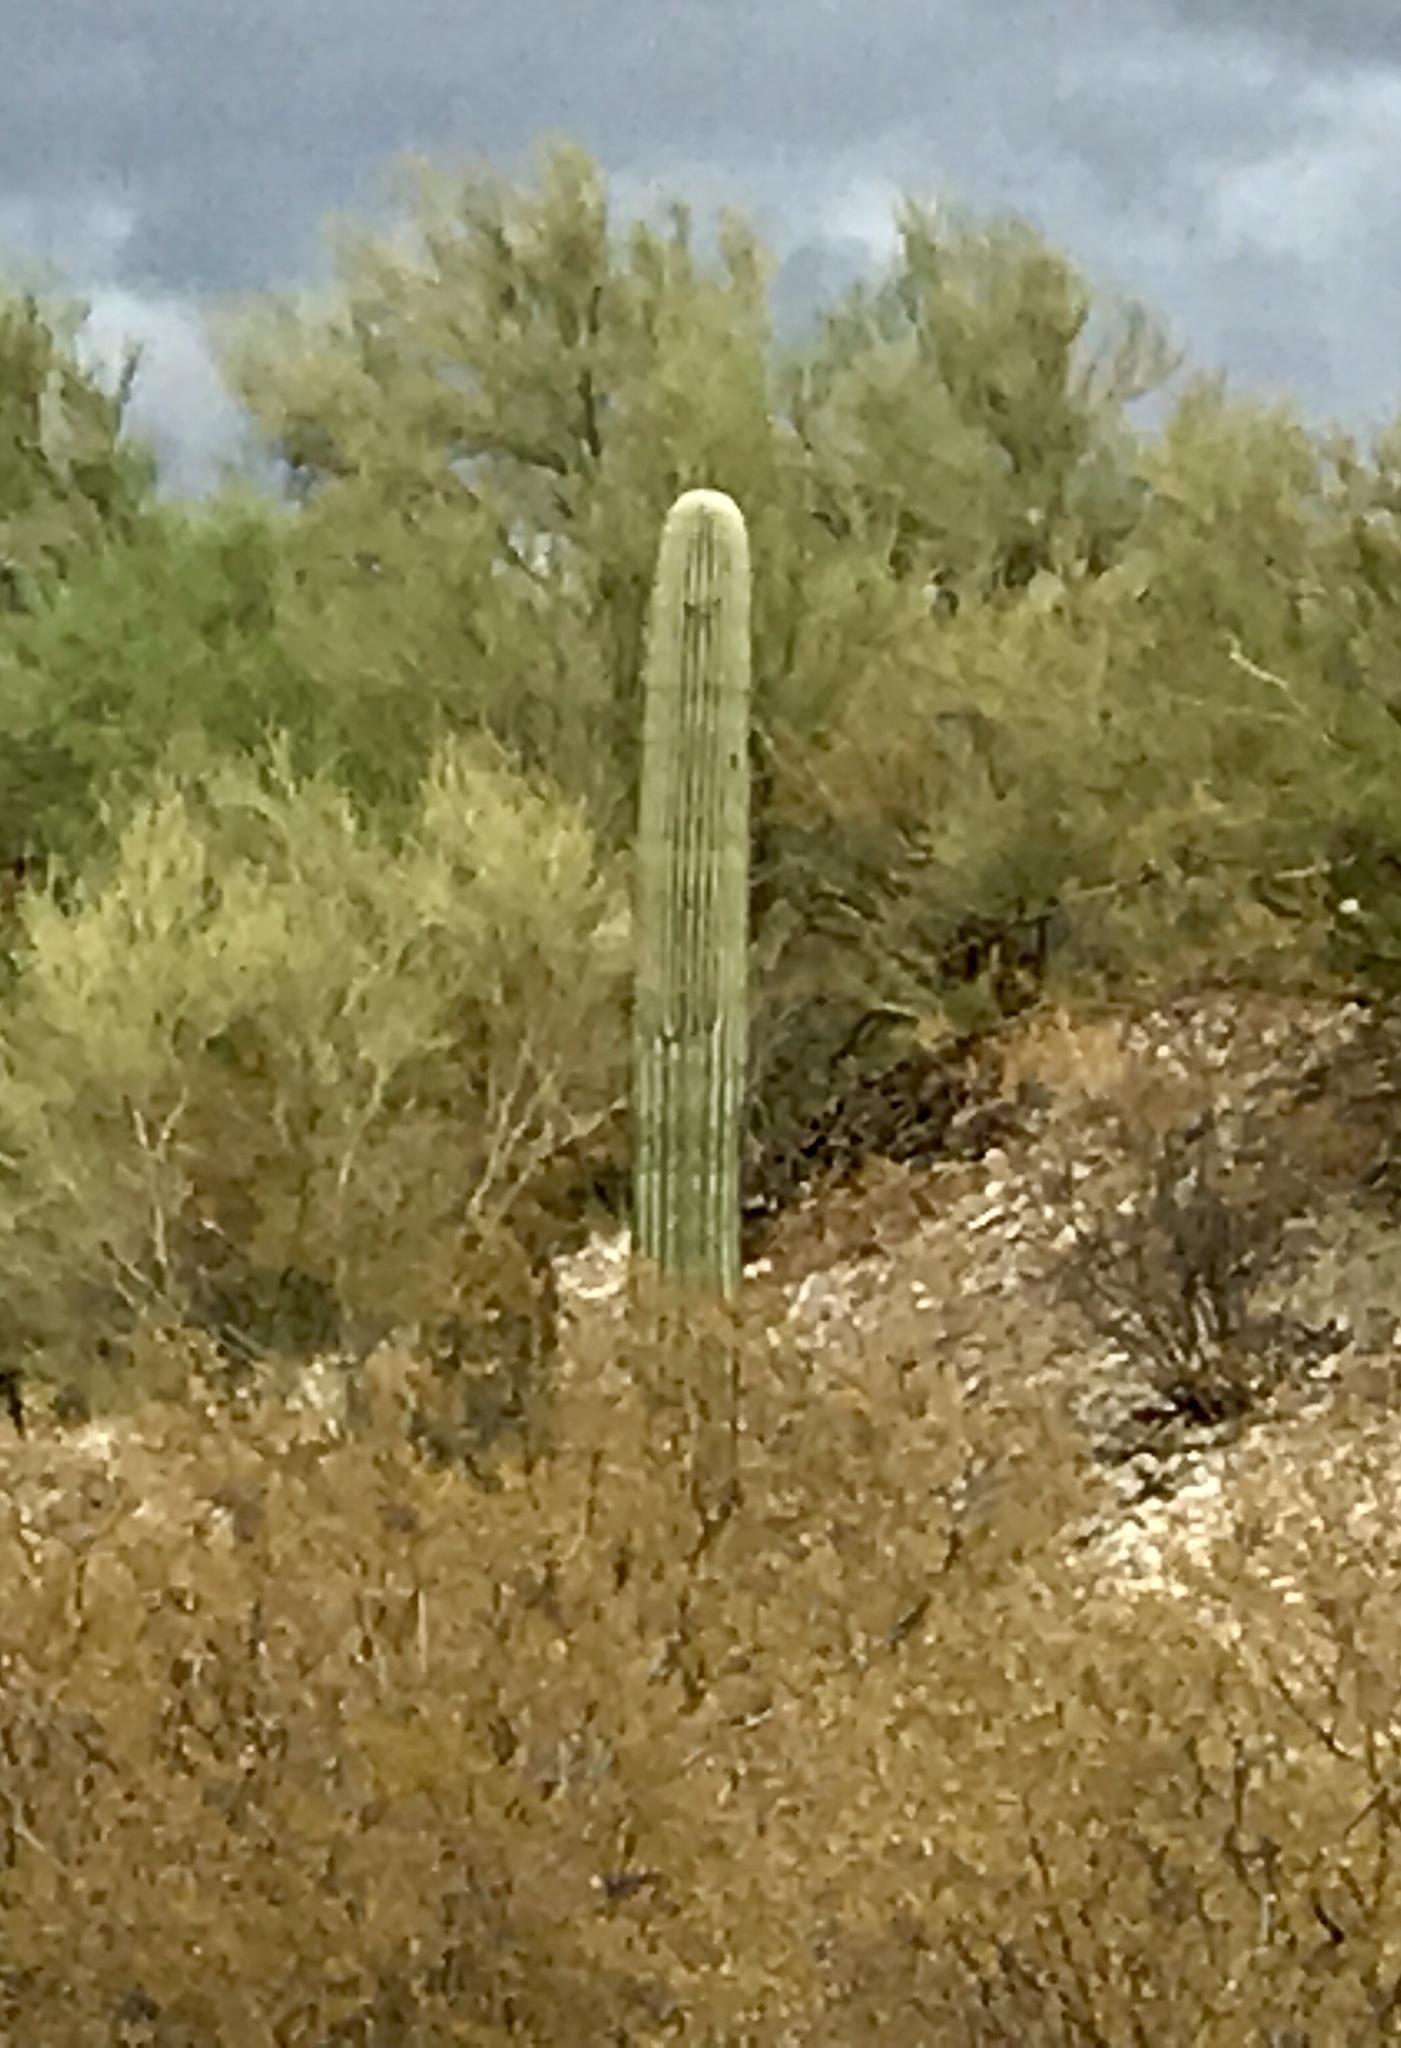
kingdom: Plantae
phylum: Tracheophyta
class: Magnoliopsida
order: Caryophyllales
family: Cactaceae
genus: Carnegiea
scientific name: Carnegiea gigantea
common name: Saguaro
